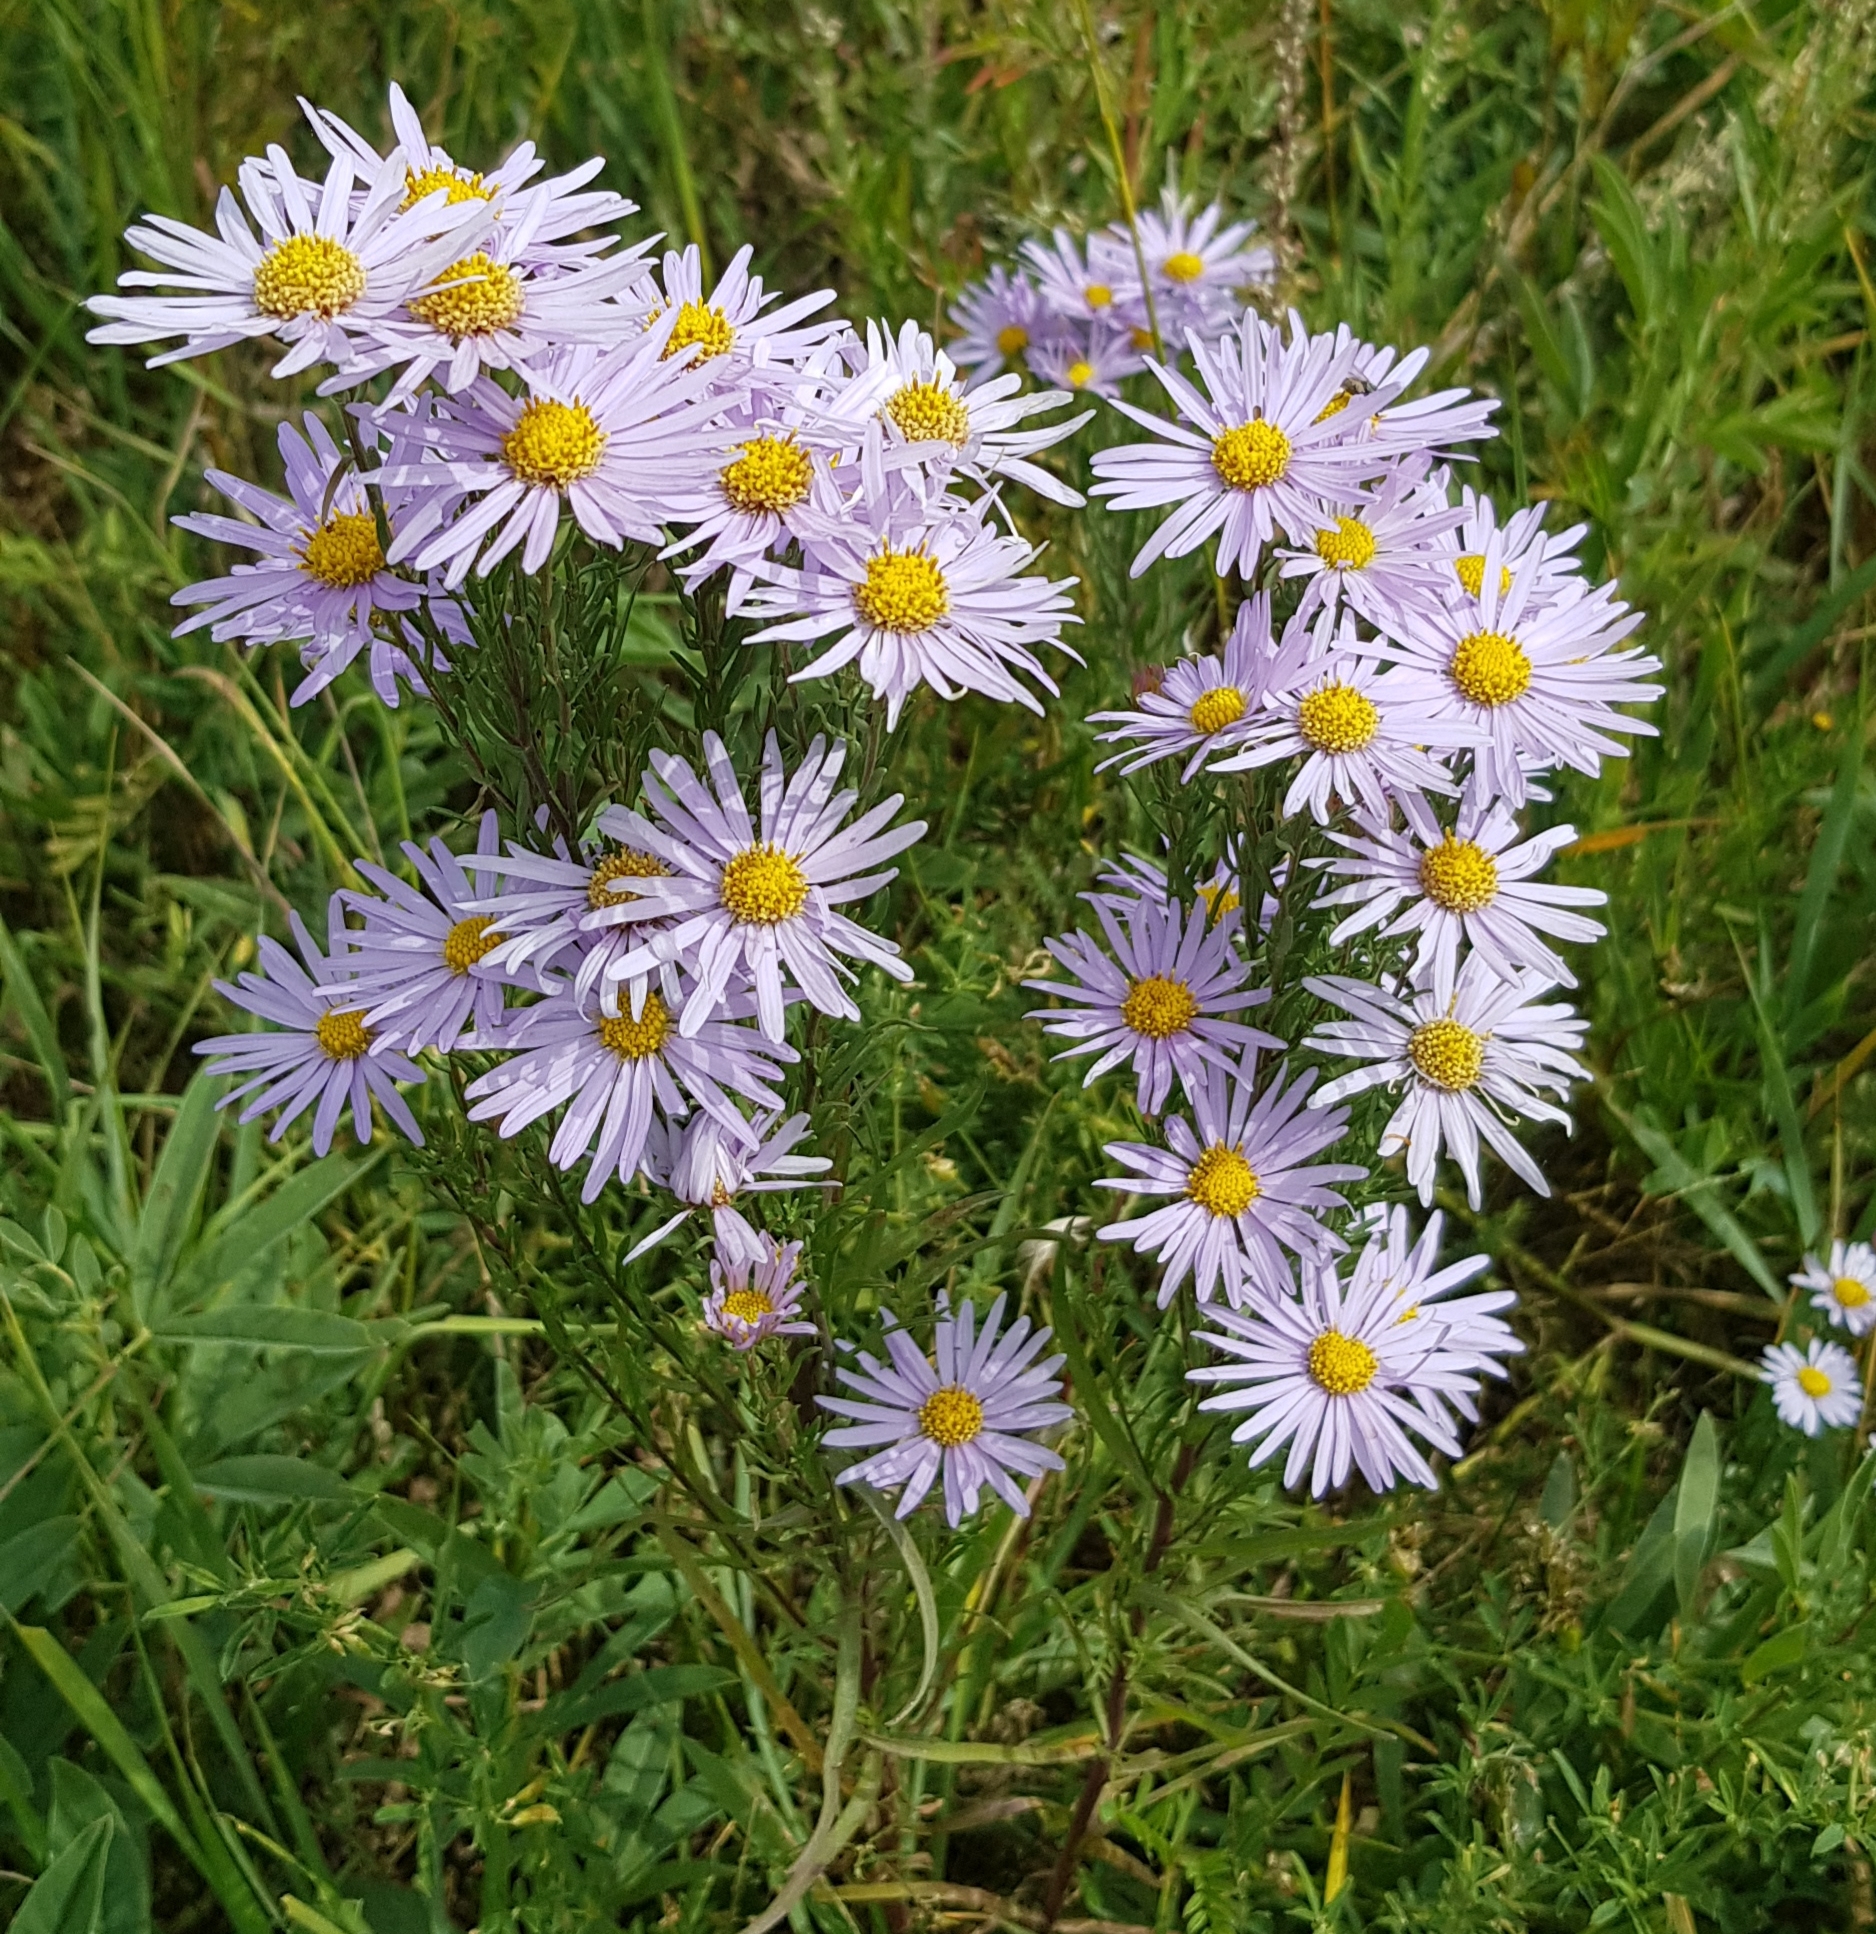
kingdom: Plantae
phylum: Tracheophyta
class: Magnoliopsida
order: Asterales
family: Asteraceae
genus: Galatella
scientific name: Galatella dahurica
